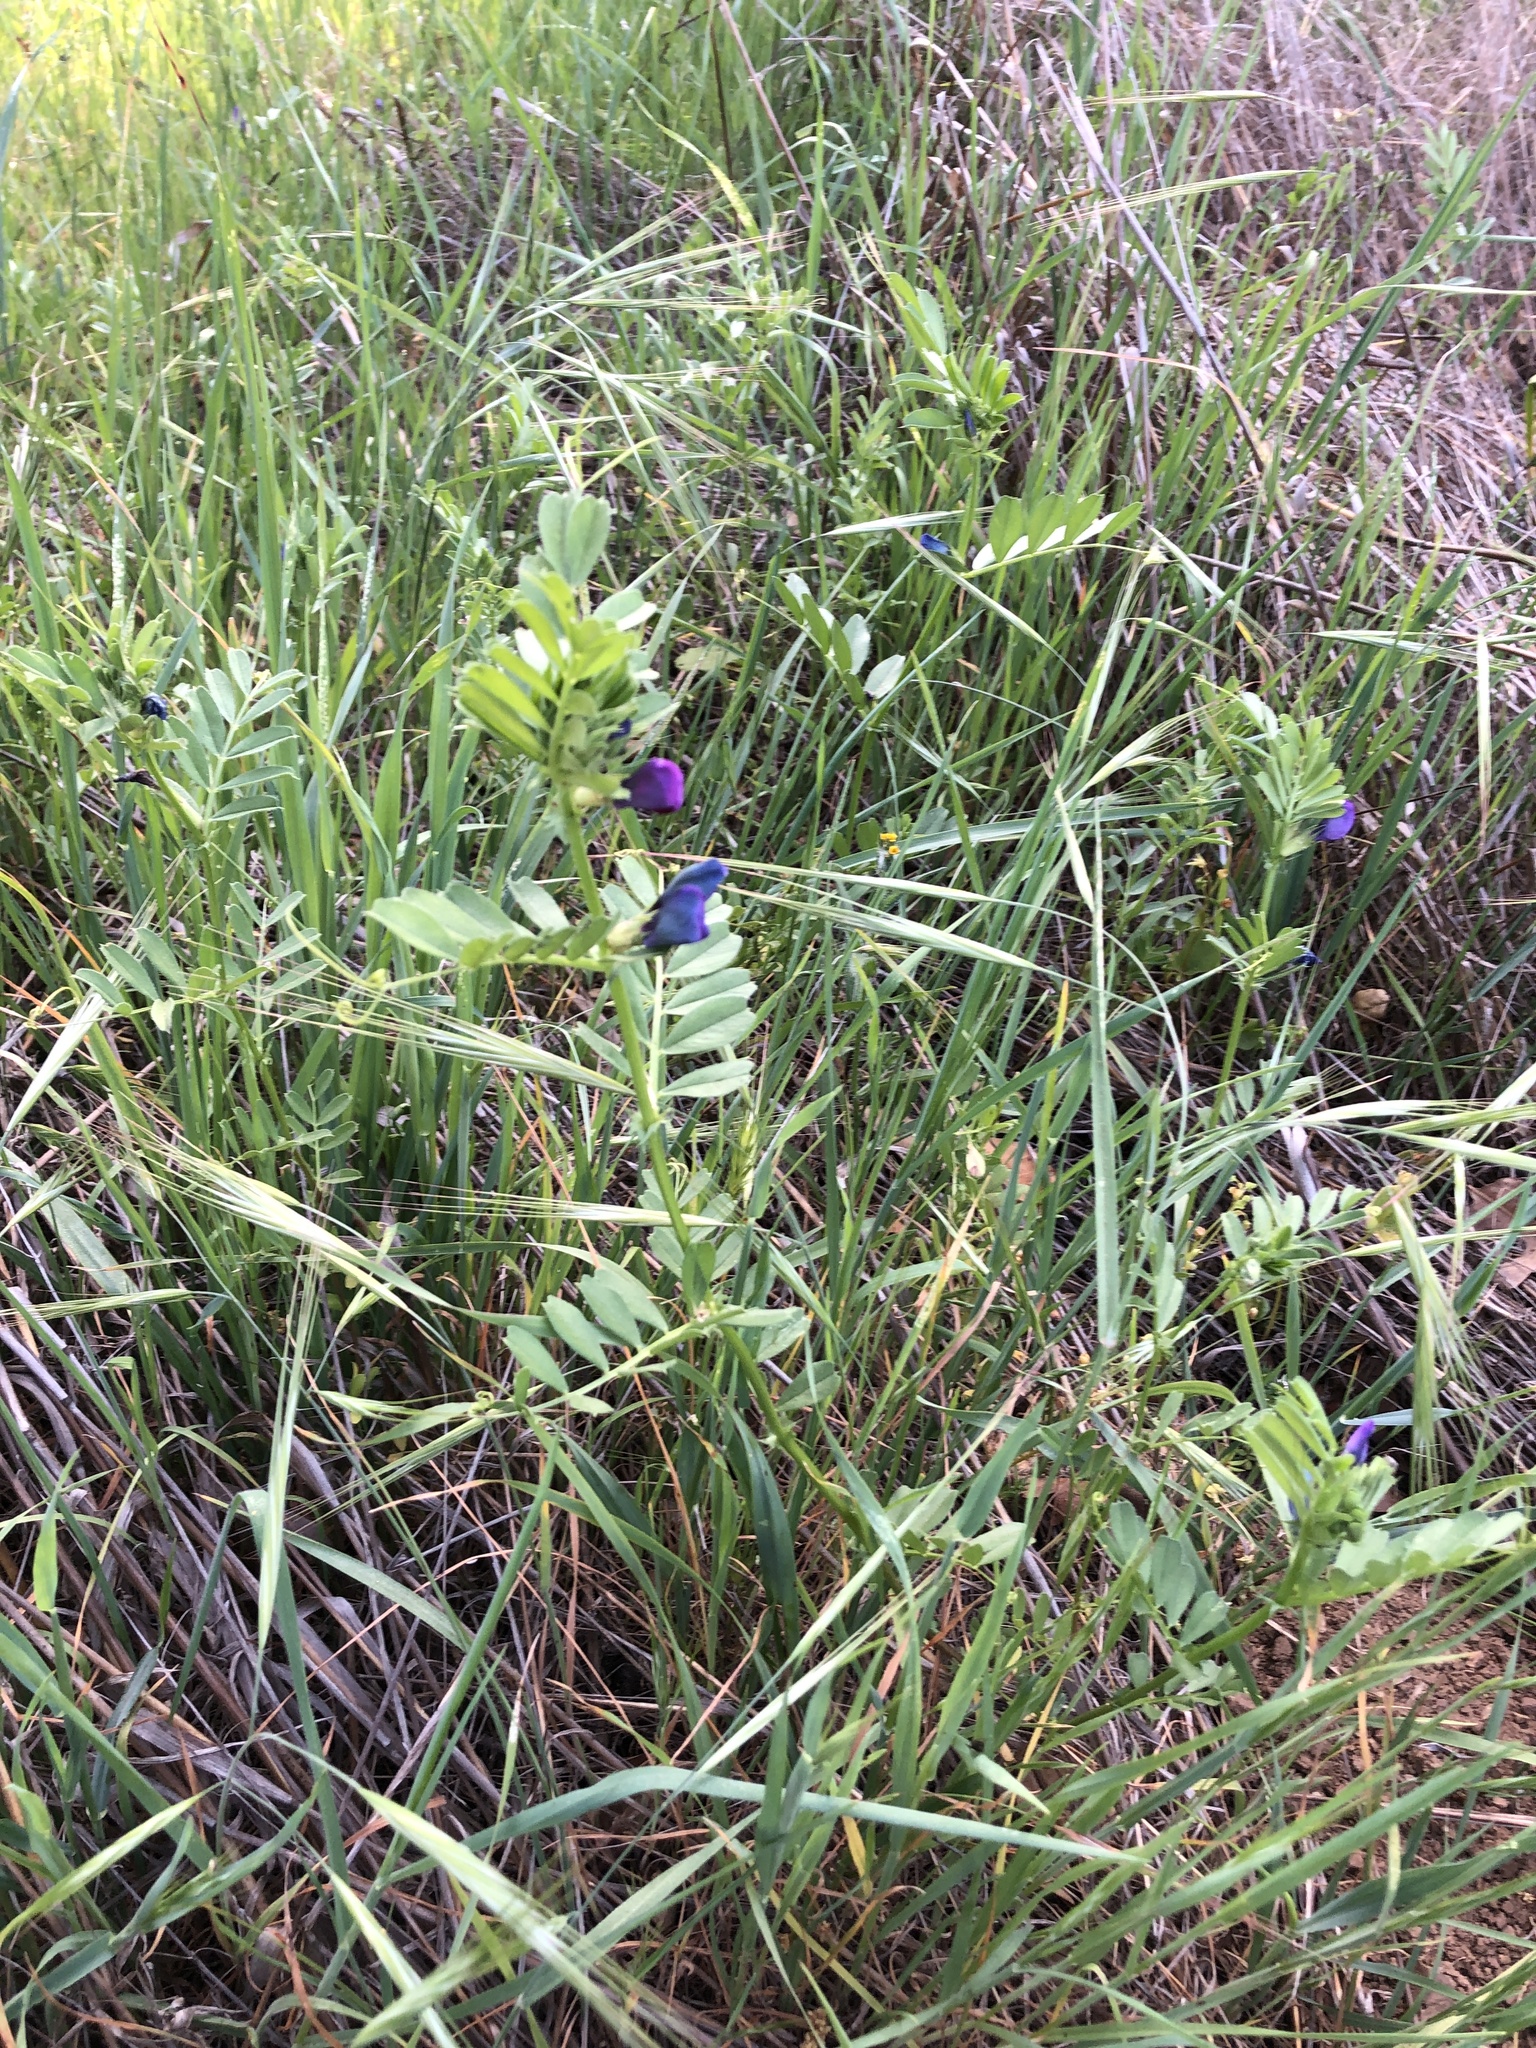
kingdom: Plantae
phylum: Tracheophyta
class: Magnoliopsida
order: Fabales
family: Fabaceae
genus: Vicia
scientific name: Vicia sativa
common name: Garden vetch
